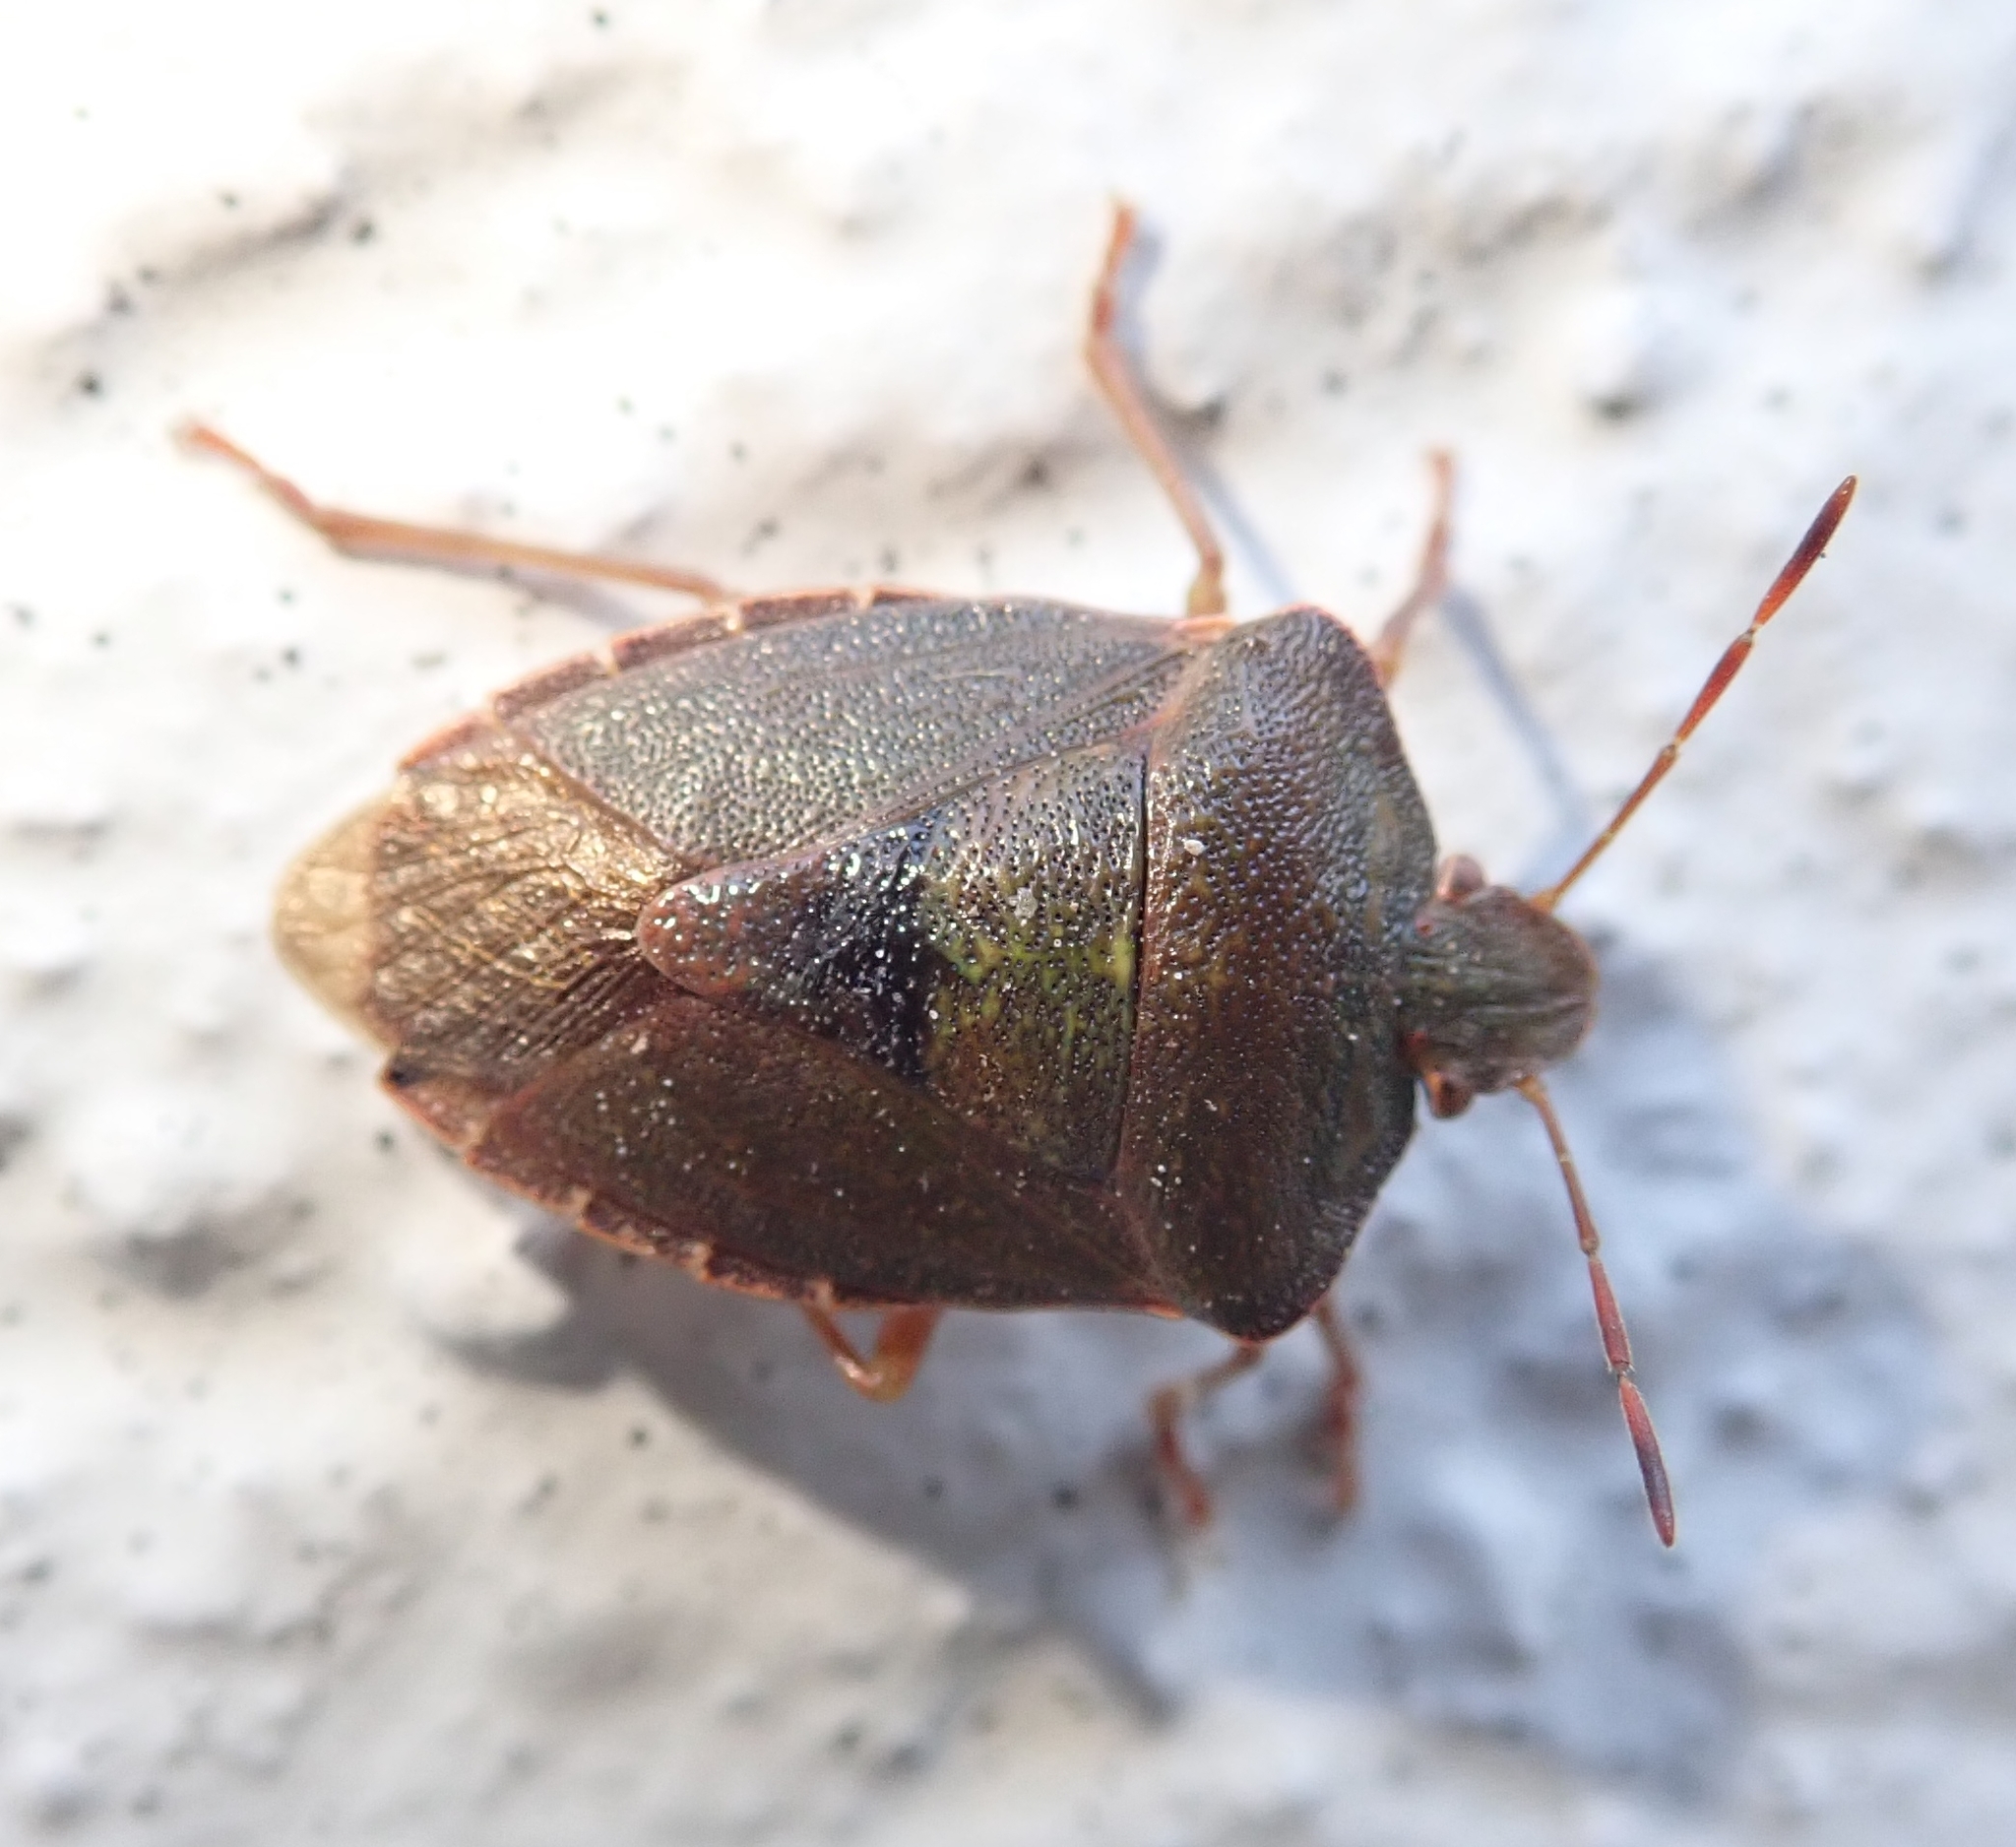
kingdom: Animalia
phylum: Arthropoda
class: Insecta
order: Hemiptera
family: Pentatomidae
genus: Palomena
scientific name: Palomena prasina
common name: Green shieldbug
